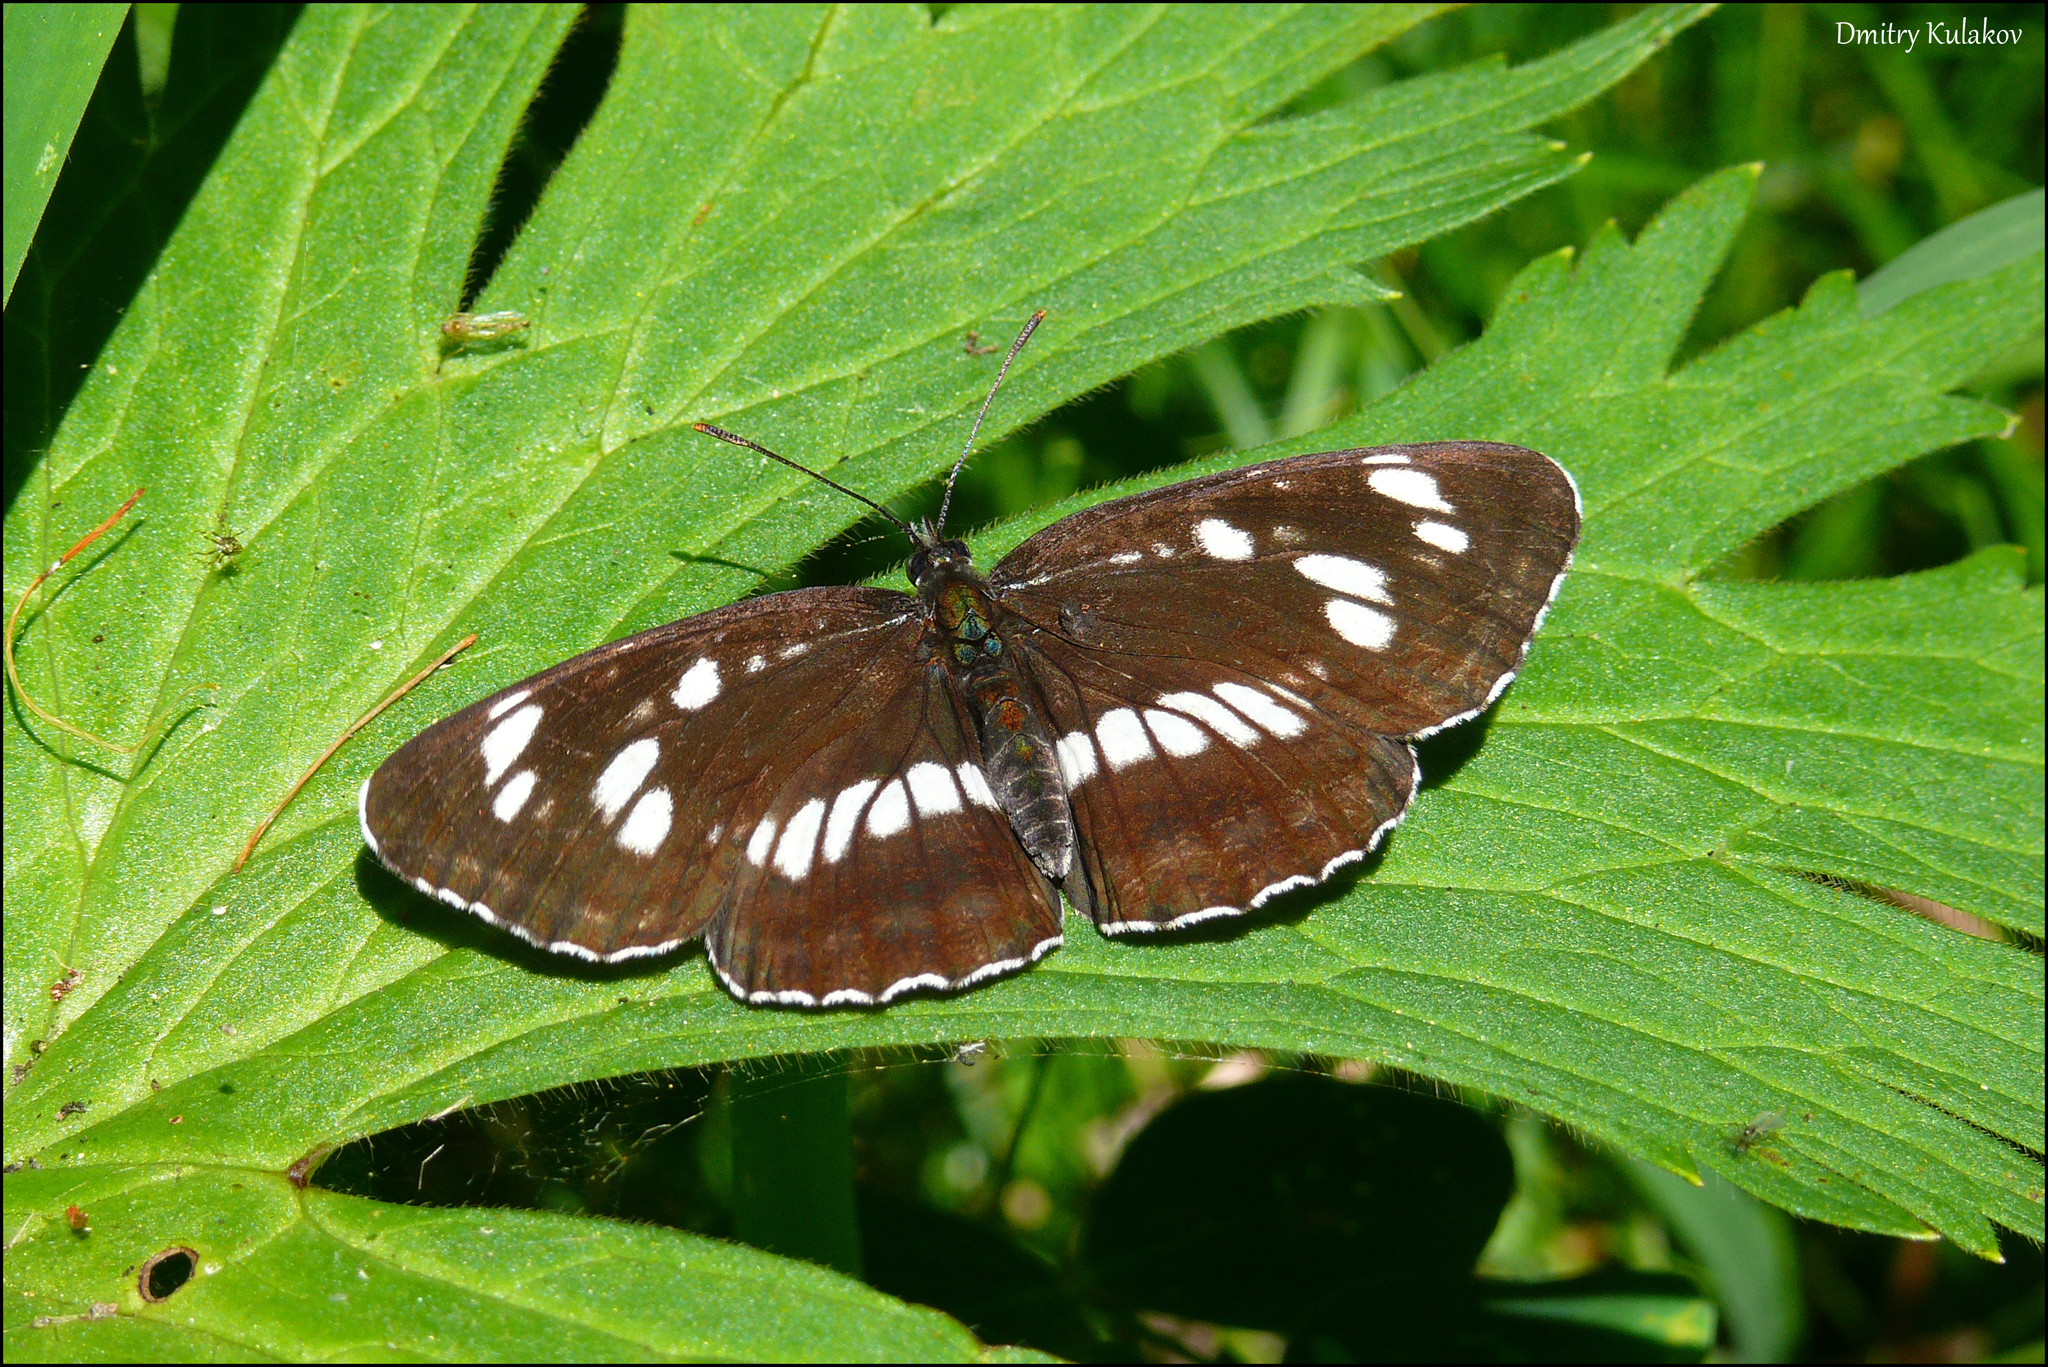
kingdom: Animalia
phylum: Arthropoda
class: Insecta
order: Lepidoptera
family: Nymphalidae
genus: Neptis
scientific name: Neptis rivularis
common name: Hungarian glider
